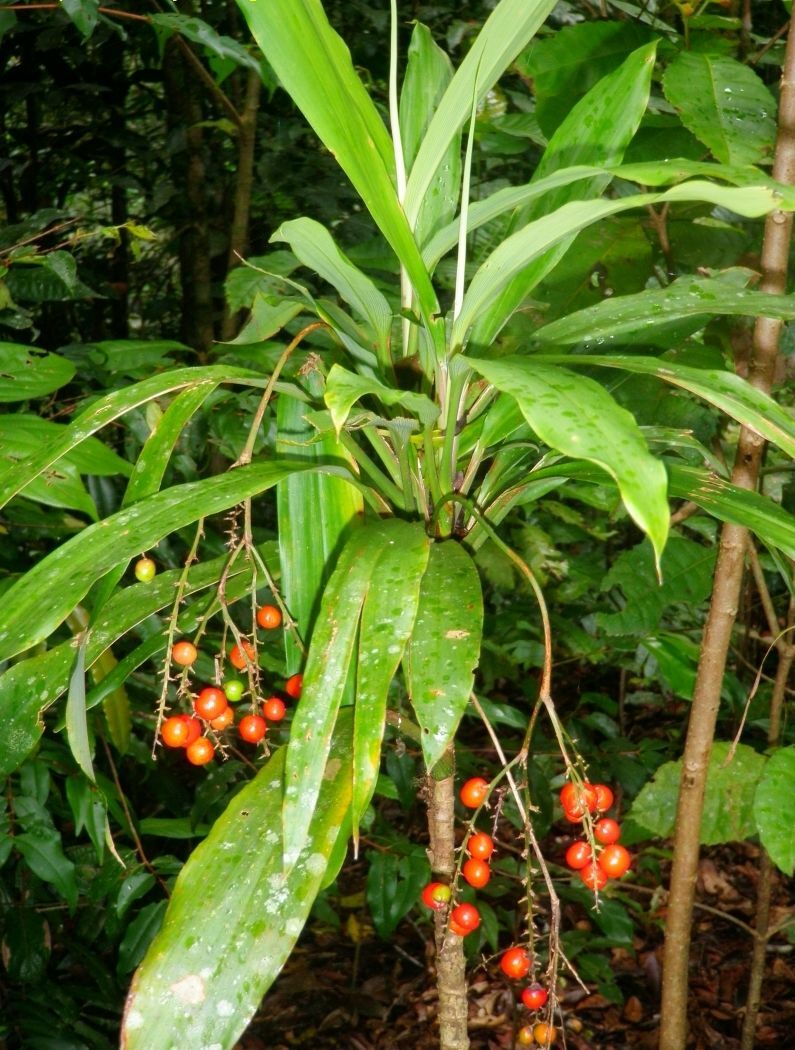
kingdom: Plantae
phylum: Tracheophyta
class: Liliopsida
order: Asparagales
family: Asparagaceae
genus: Cordyline
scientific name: Cordyline cannifolia
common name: Palm-lily
